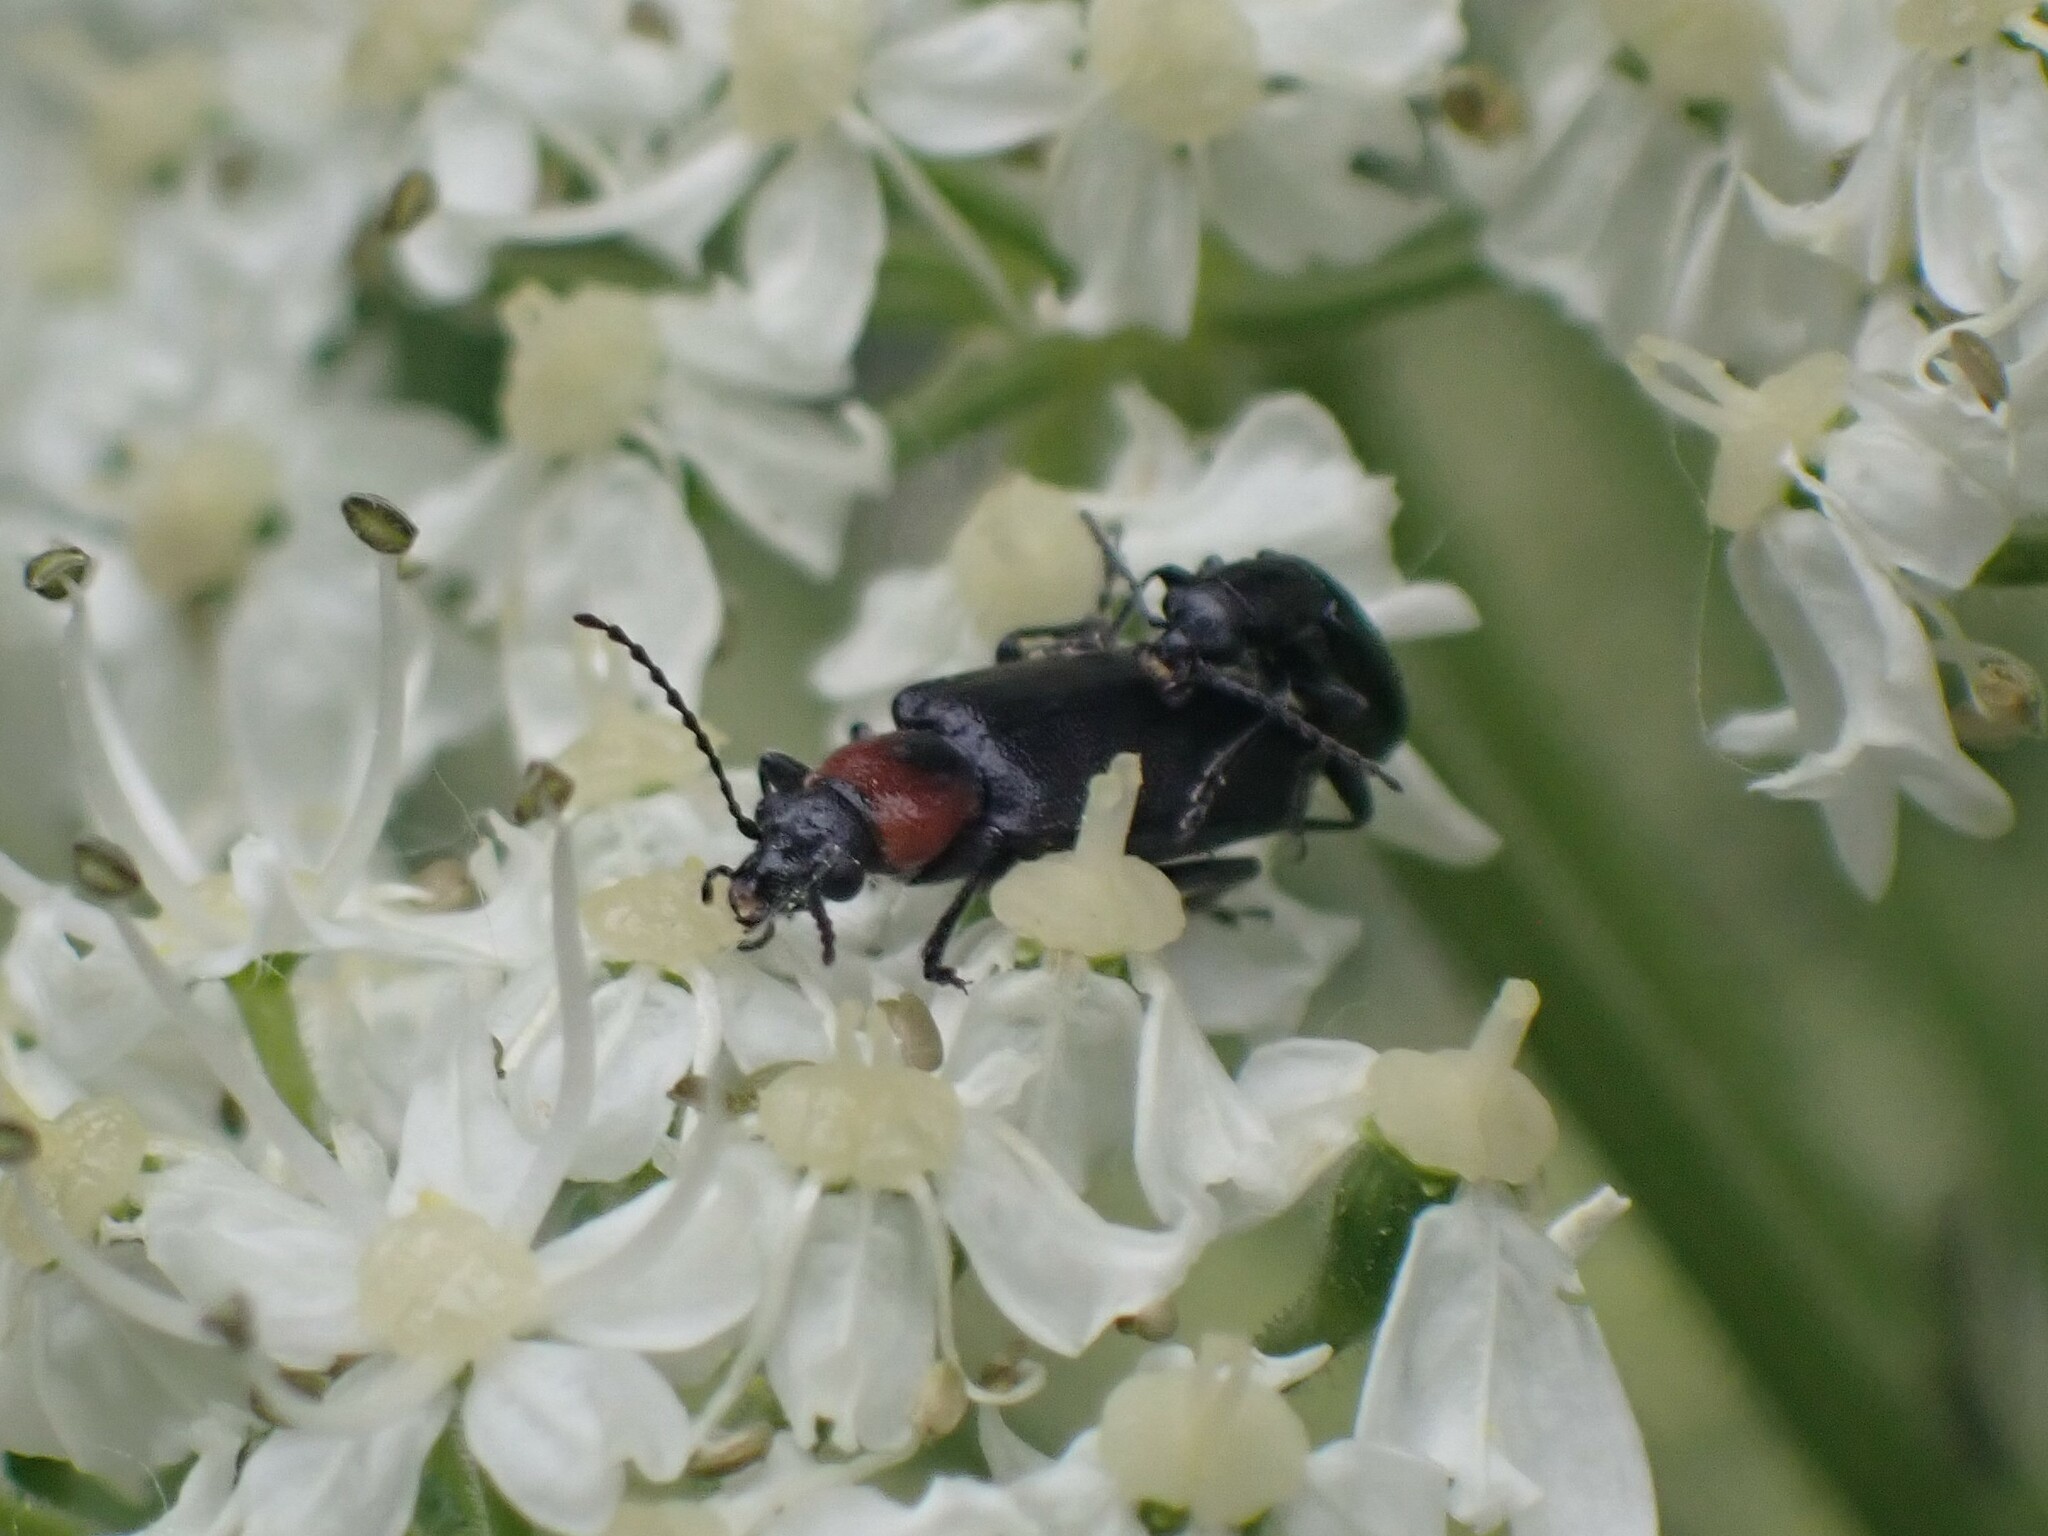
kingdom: Animalia
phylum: Arthropoda
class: Insecta
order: Coleoptera
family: Orsodacnidae
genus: Orsodacne
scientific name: Orsodacne atra
